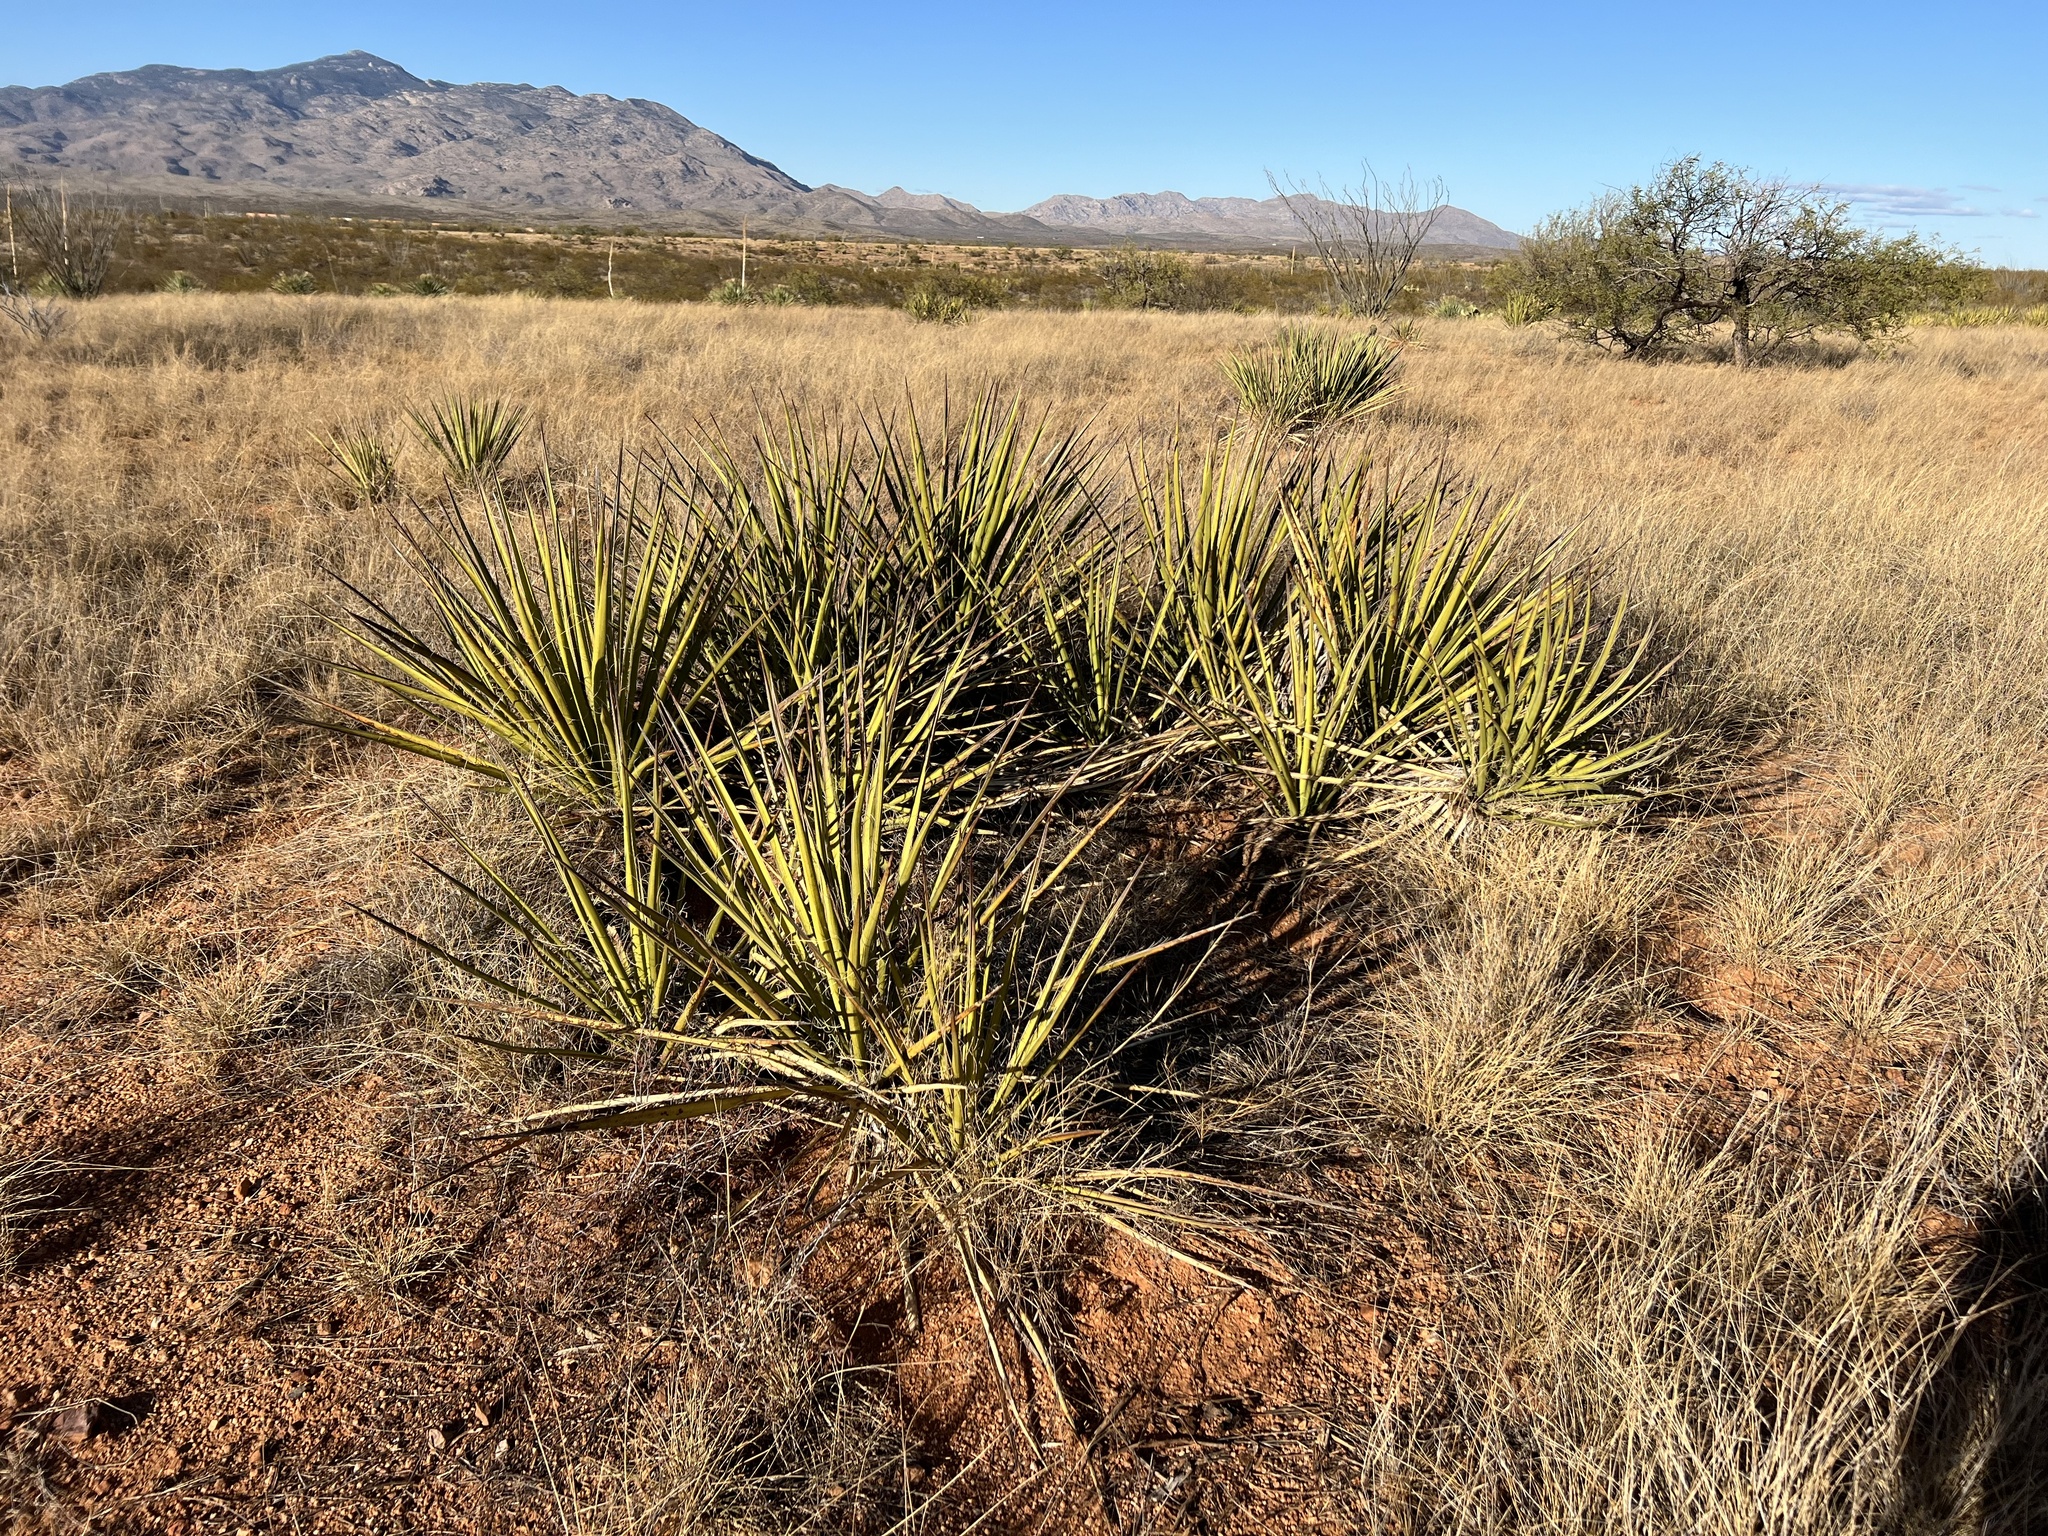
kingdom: Plantae
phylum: Tracheophyta
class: Liliopsida
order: Asparagales
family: Asparagaceae
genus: Yucca
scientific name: Yucca baccata
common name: Banana yucca
